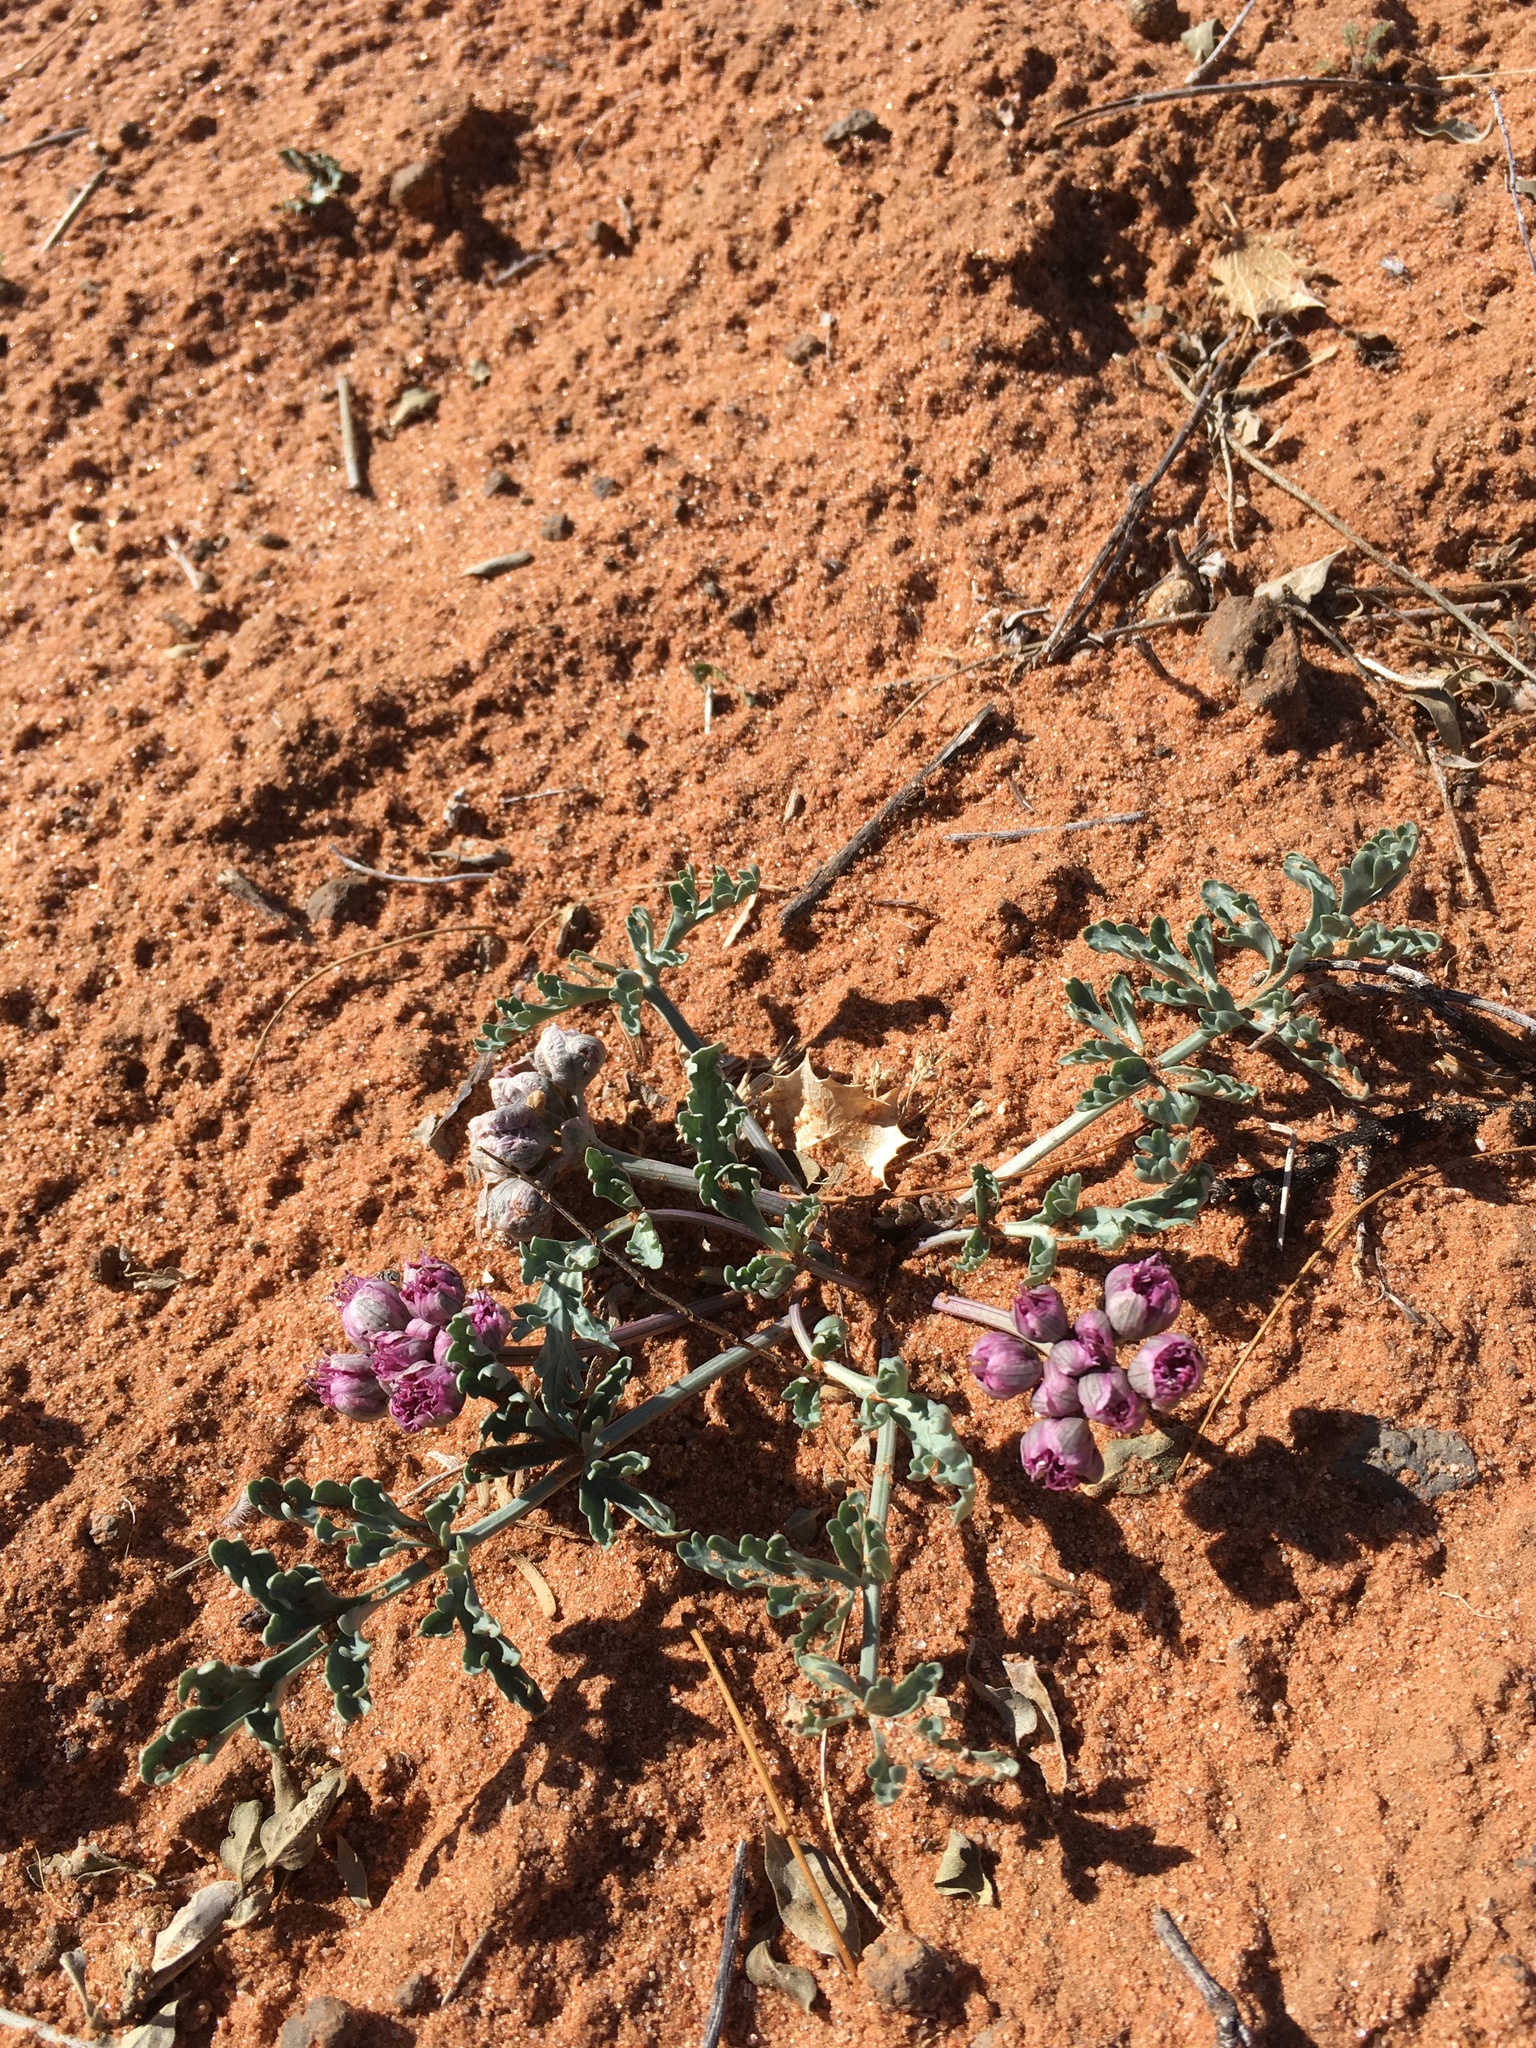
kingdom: Plantae
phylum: Tracheophyta
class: Magnoliopsida
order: Apiales
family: Apiaceae
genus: Vesper
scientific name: Vesper multinervatus
